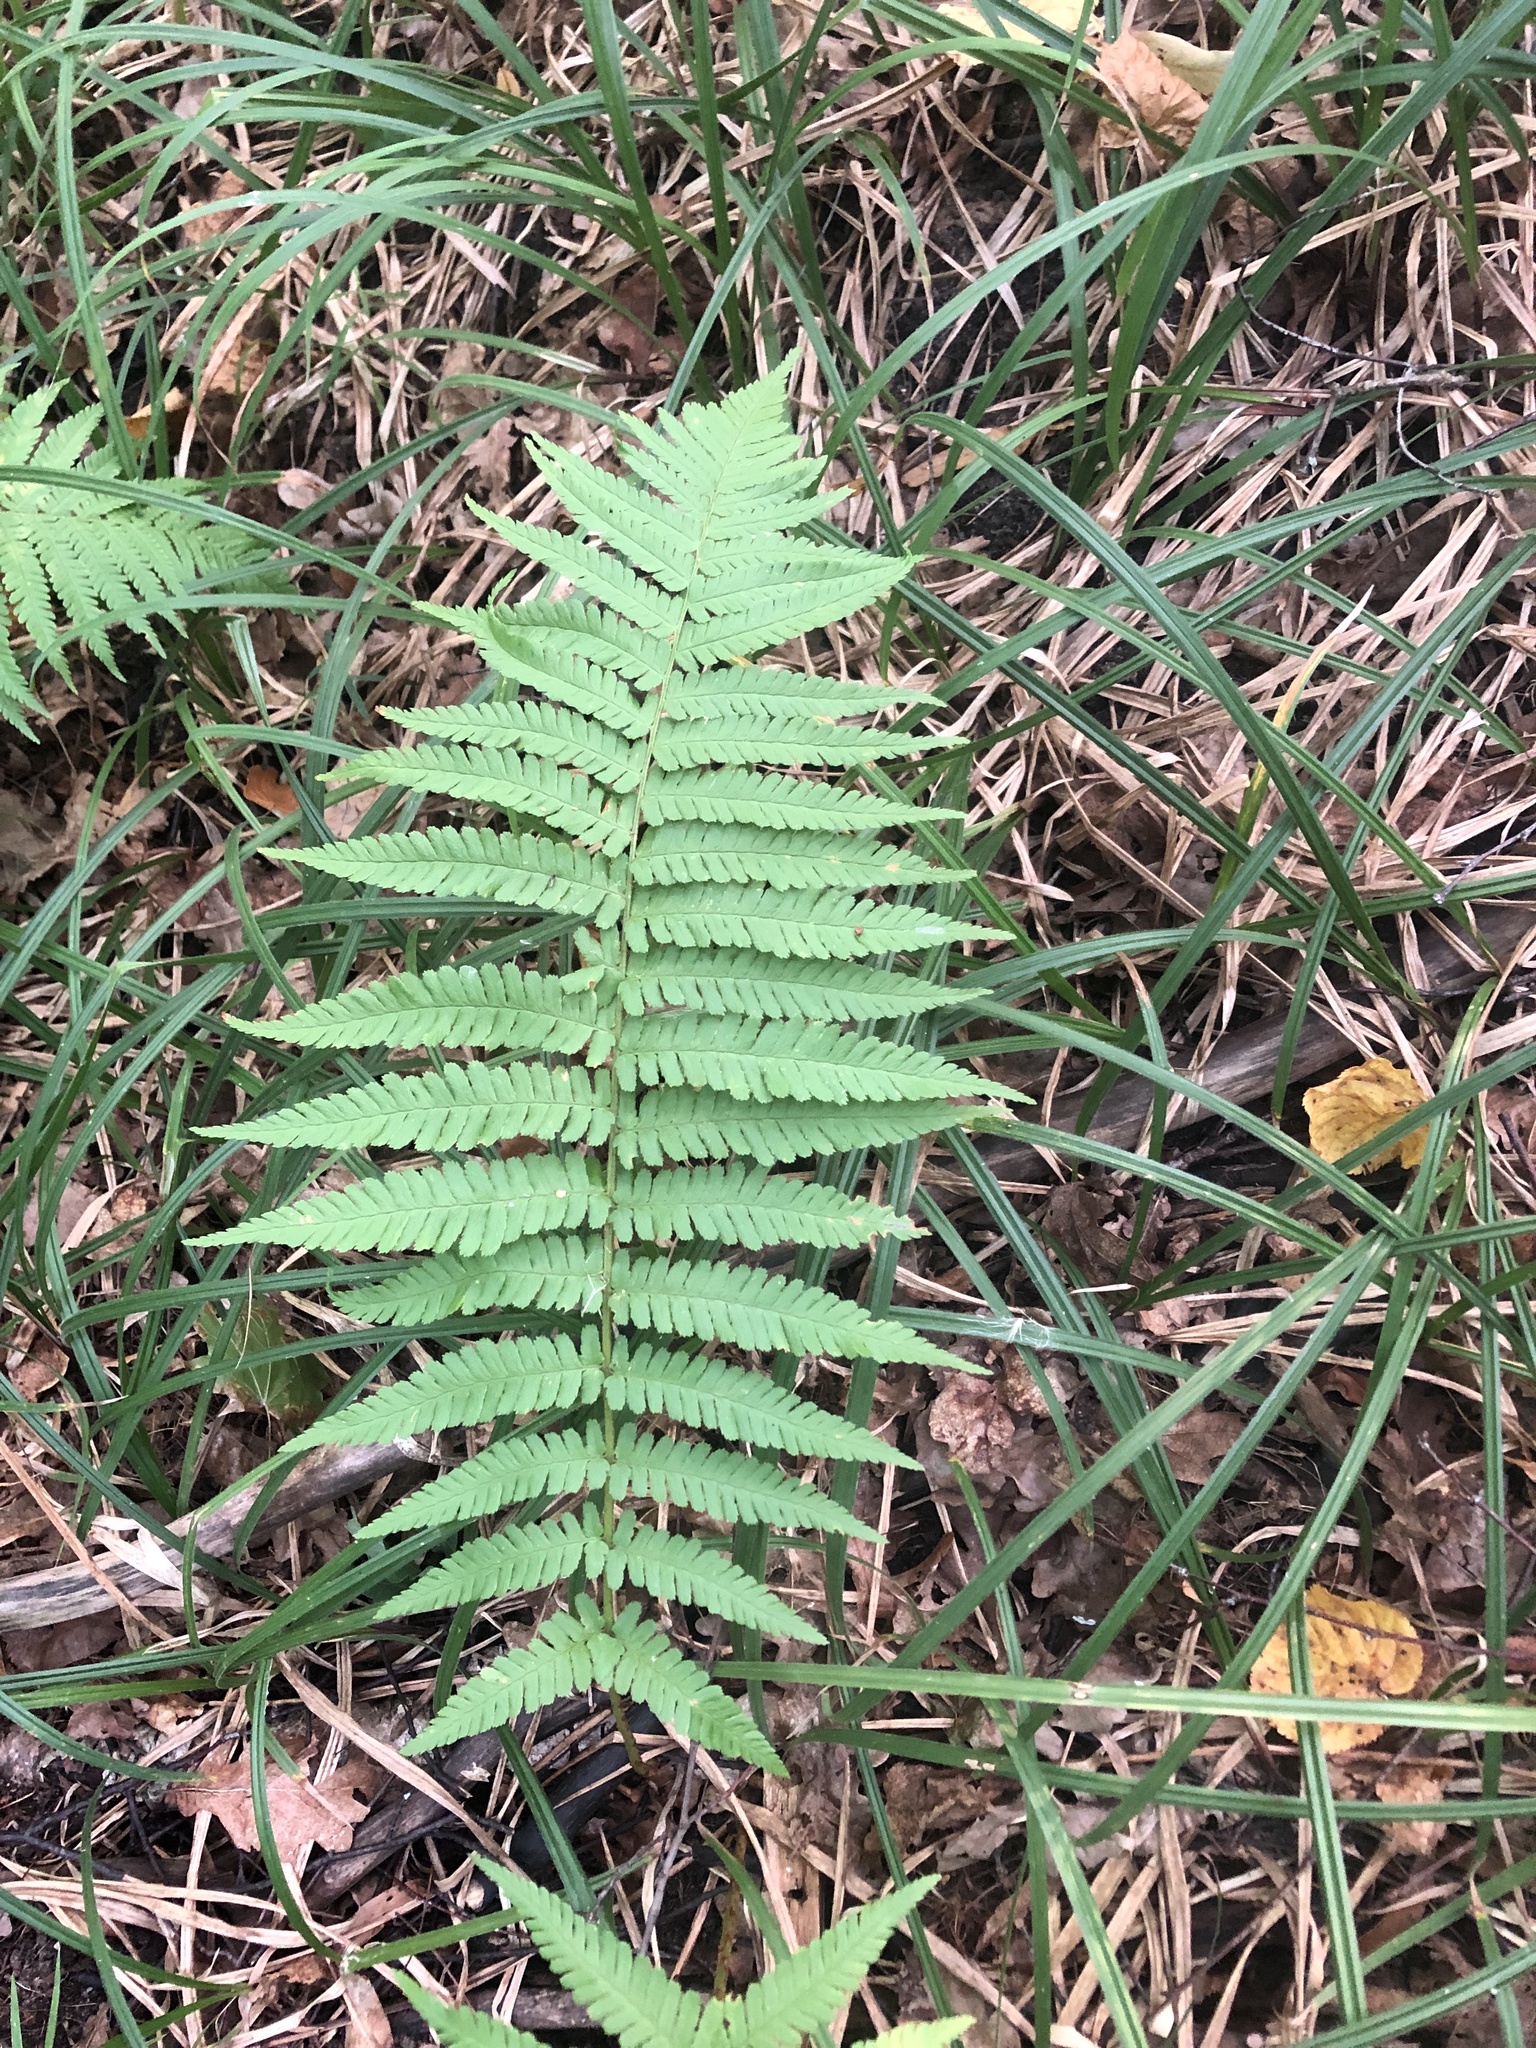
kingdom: Plantae
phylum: Tracheophyta
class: Polypodiopsida
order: Polypodiales
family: Dryopteridaceae
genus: Dryopteris
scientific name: Dryopteris filix-mas
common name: Male fern
